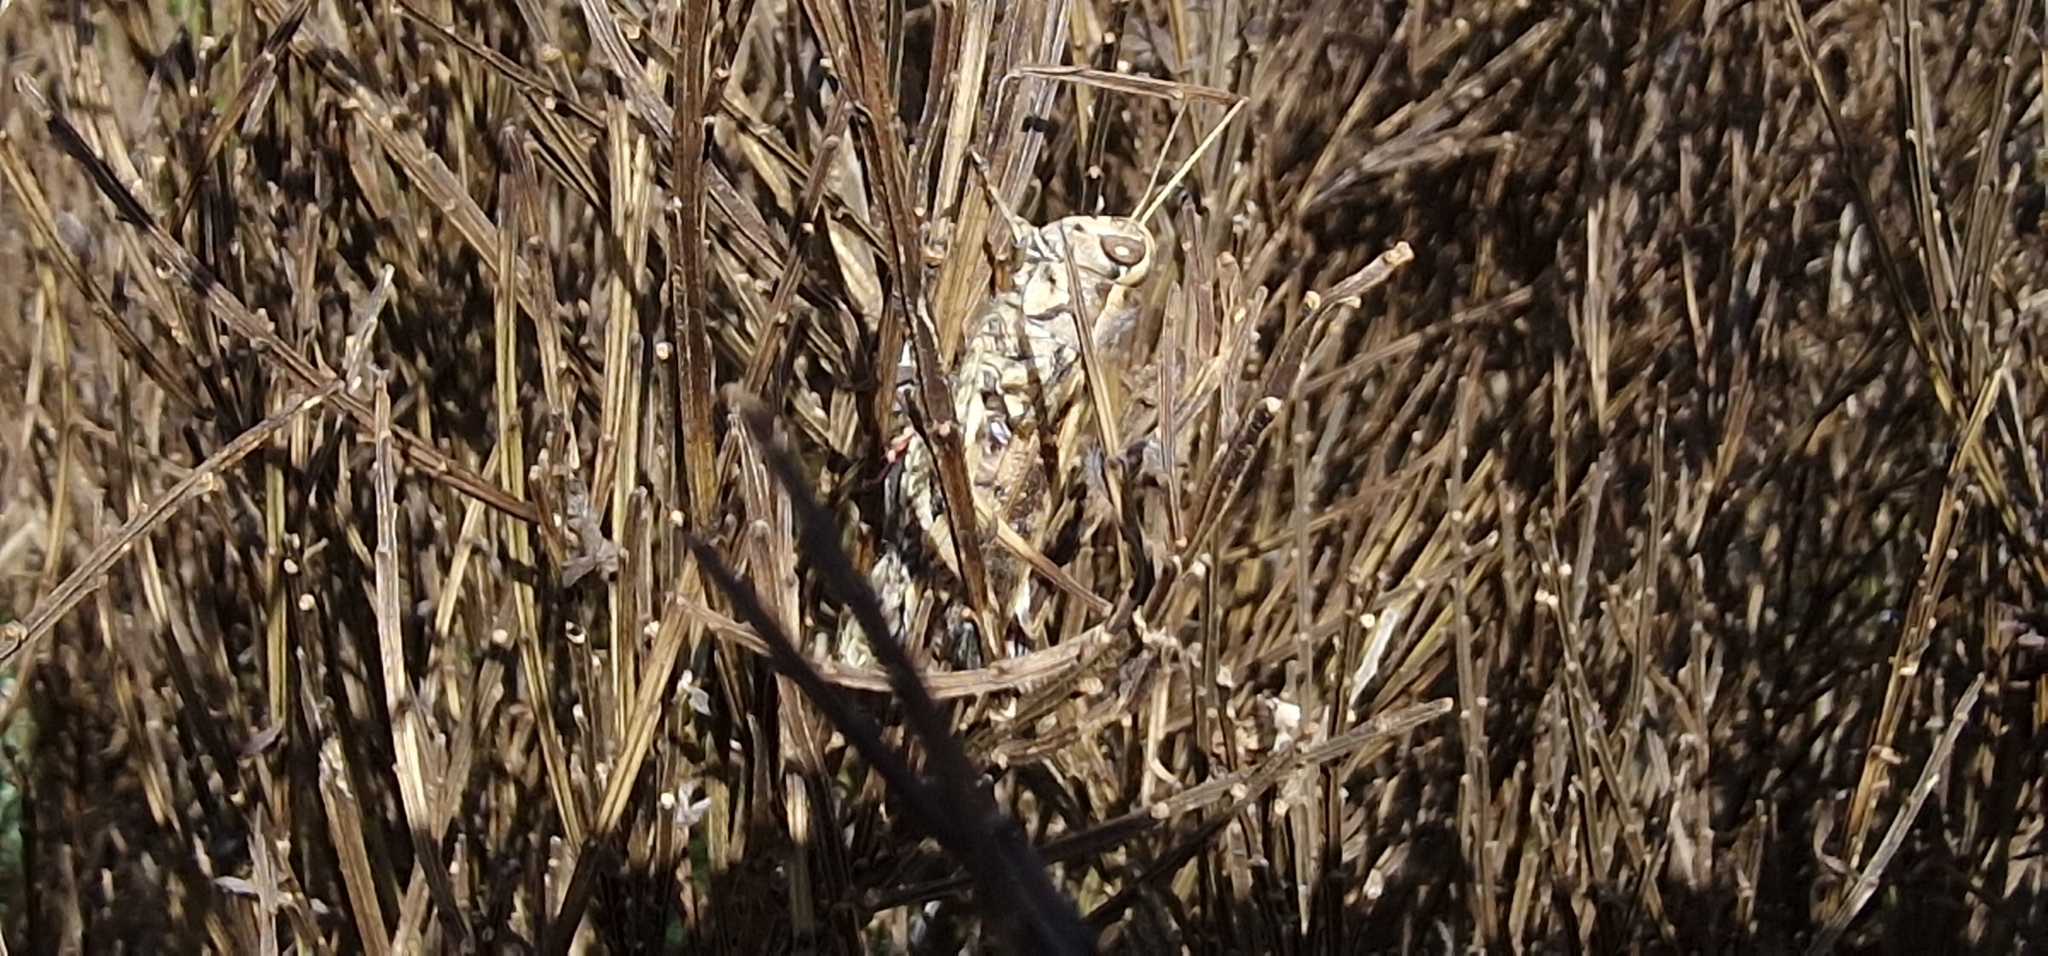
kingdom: Animalia
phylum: Arthropoda
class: Insecta
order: Orthoptera
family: Acrididae
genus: Calliptamus
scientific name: Calliptamus madeirae
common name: Madeira pincer grasshopper
